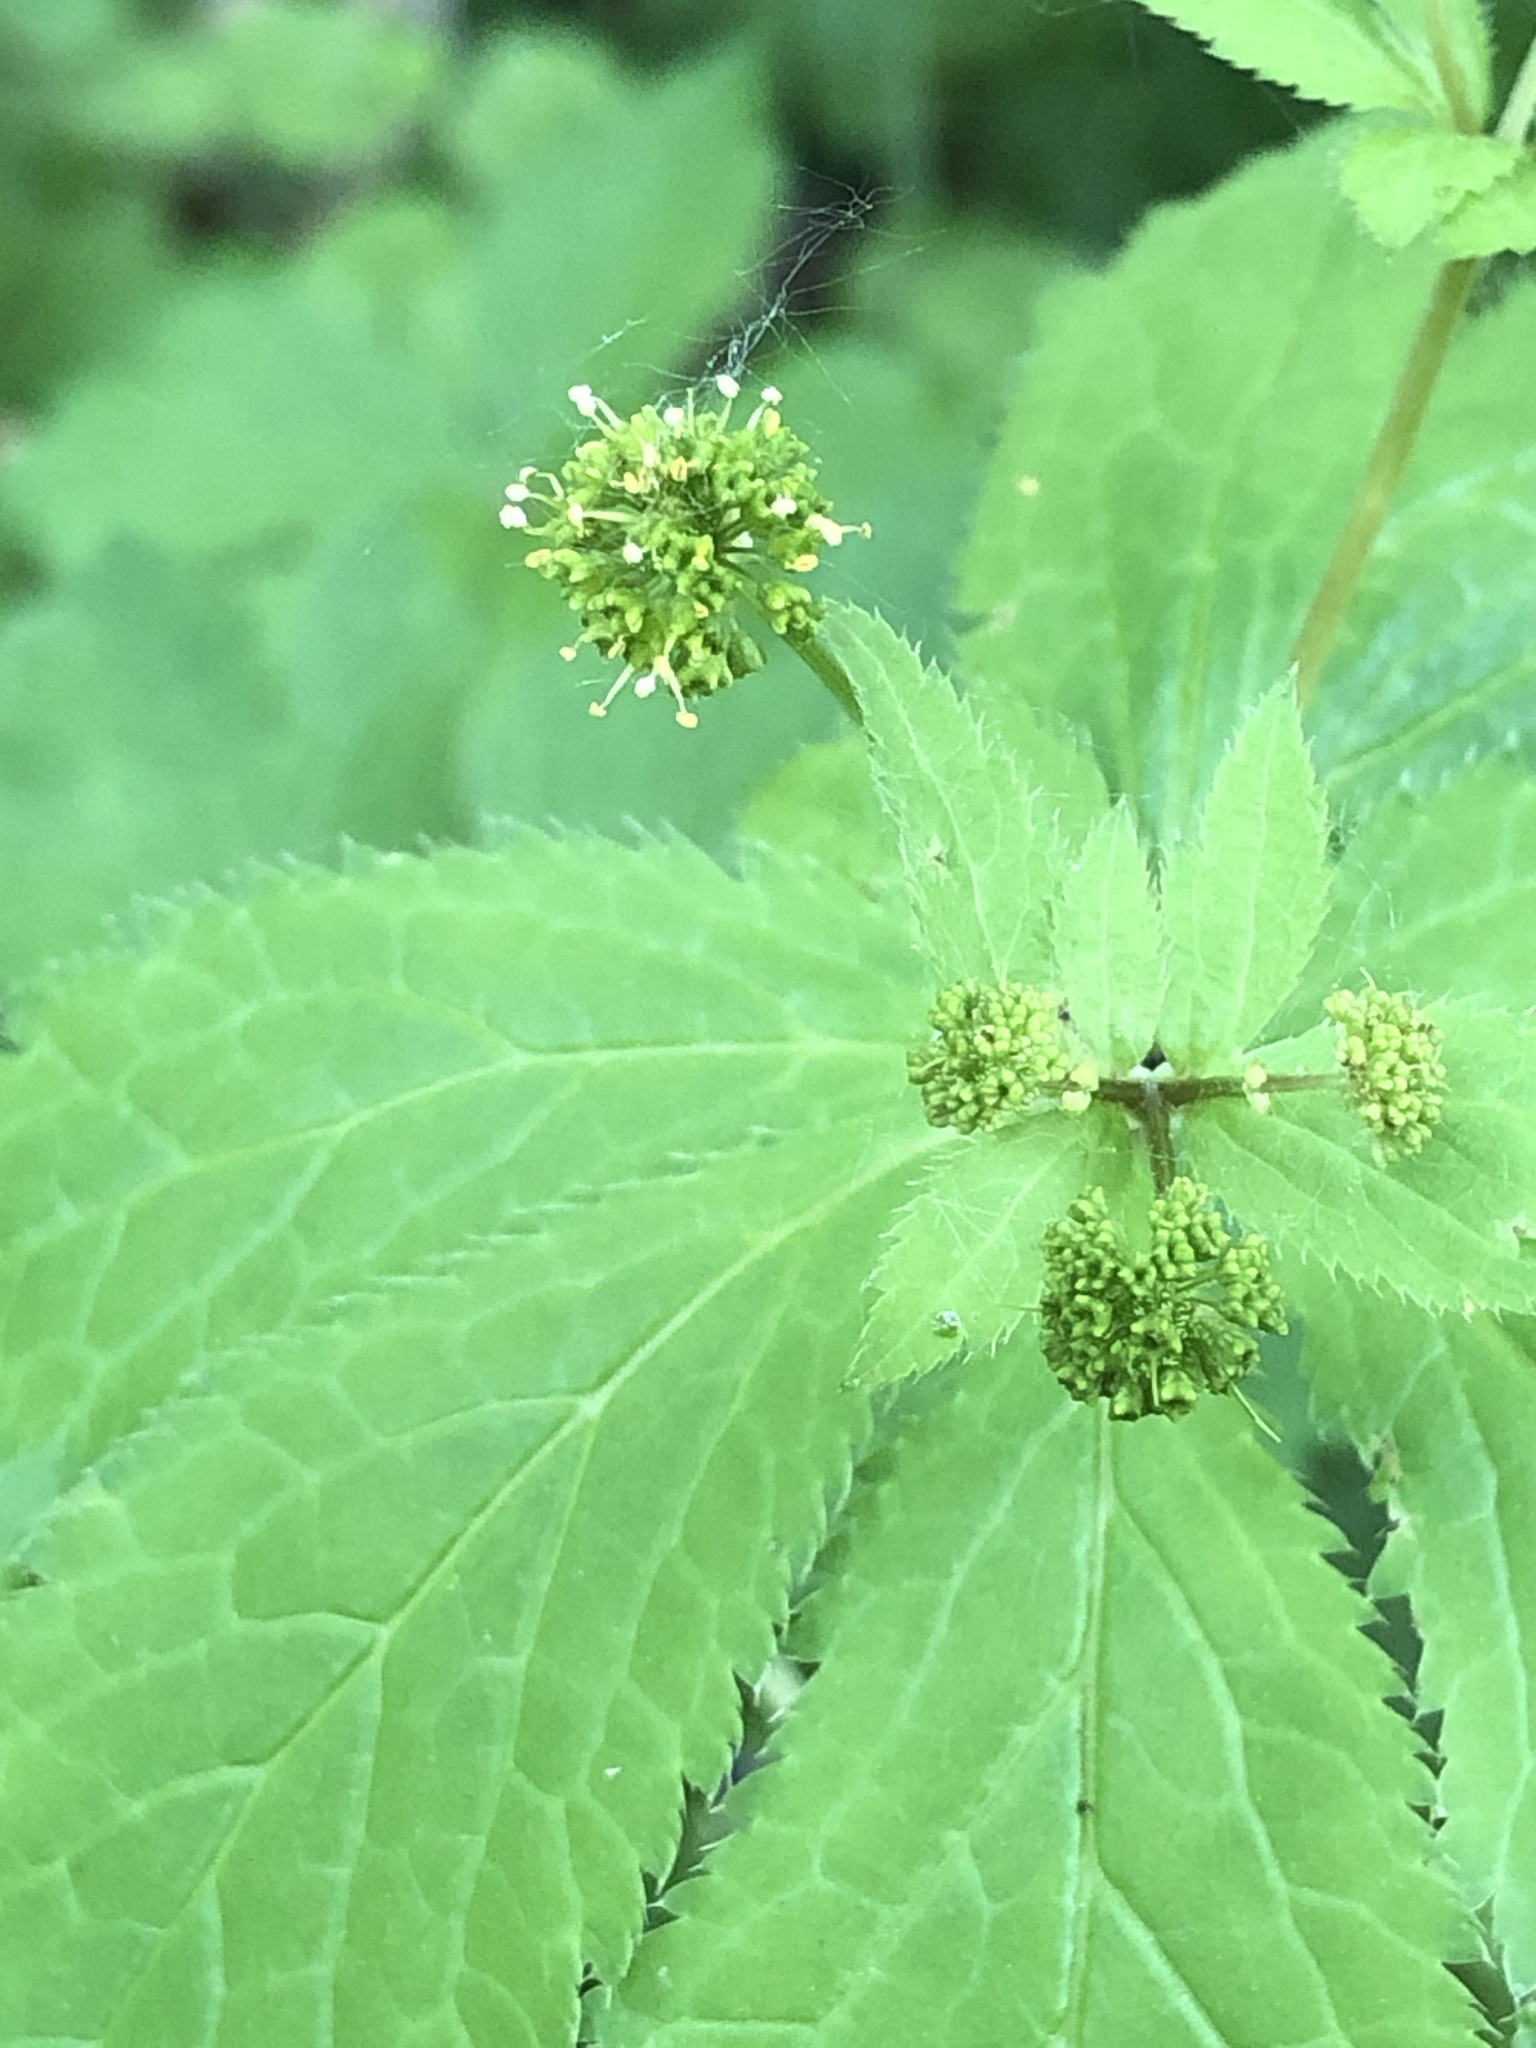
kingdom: Plantae
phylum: Tracheophyta
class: Magnoliopsida
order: Apiales
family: Apiaceae
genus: Sanicula
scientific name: Sanicula odorata
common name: Cluster sanicle
